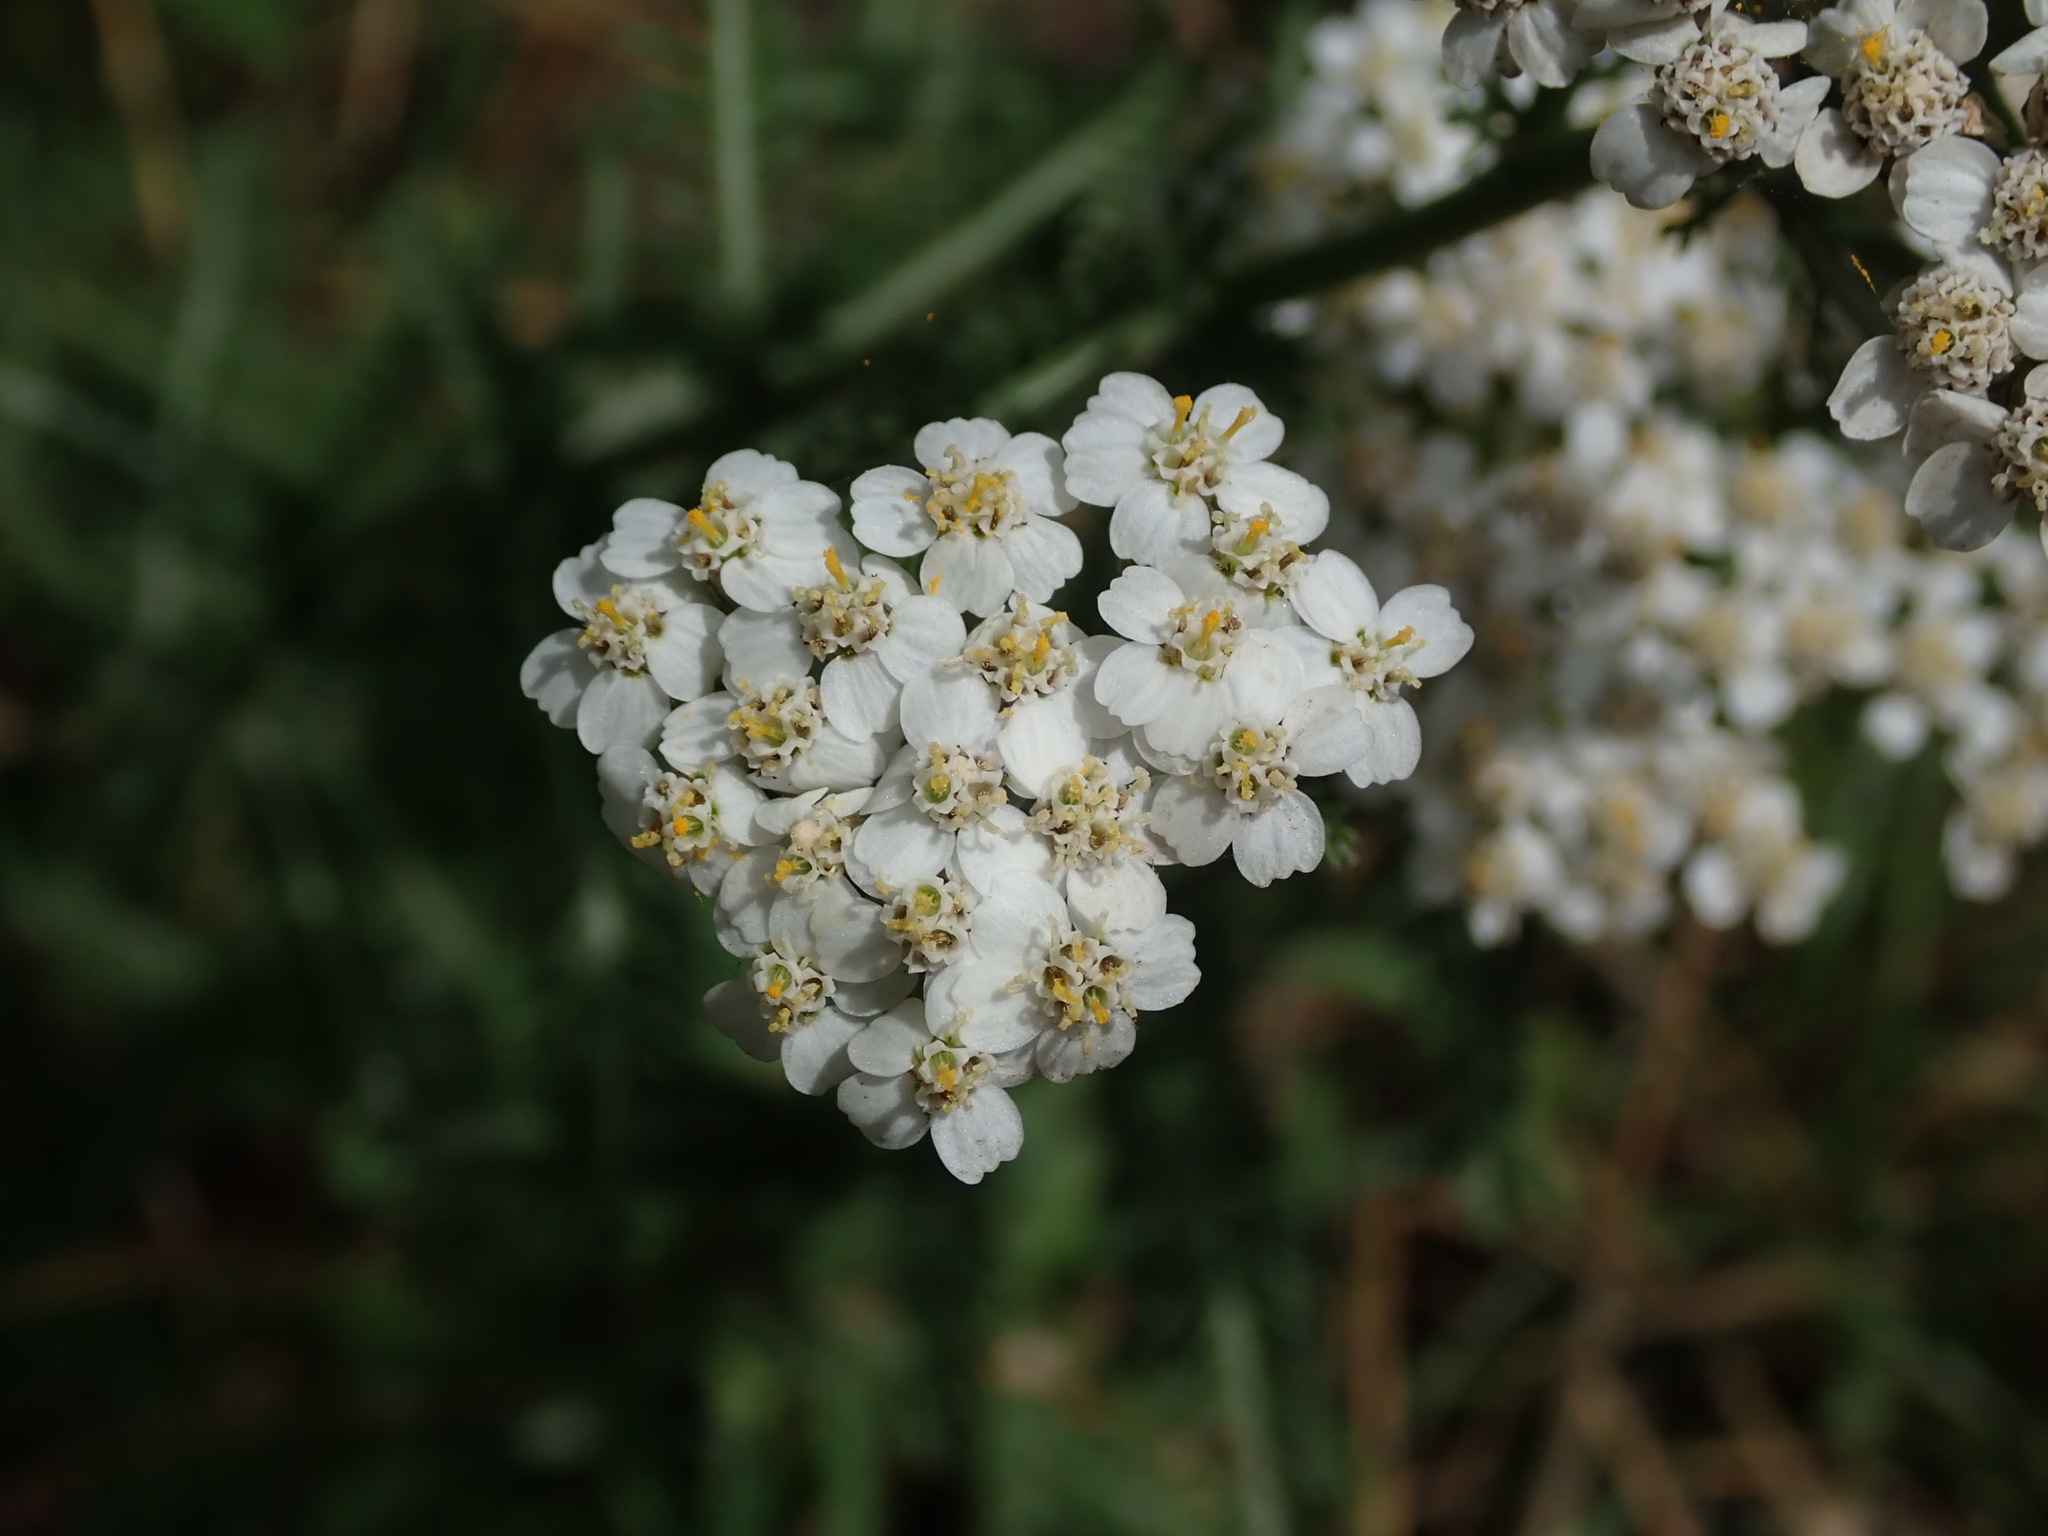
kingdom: Plantae
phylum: Tracheophyta
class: Magnoliopsida
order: Asterales
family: Asteraceae
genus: Achillea
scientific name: Achillea millefolium
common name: Yarrow
